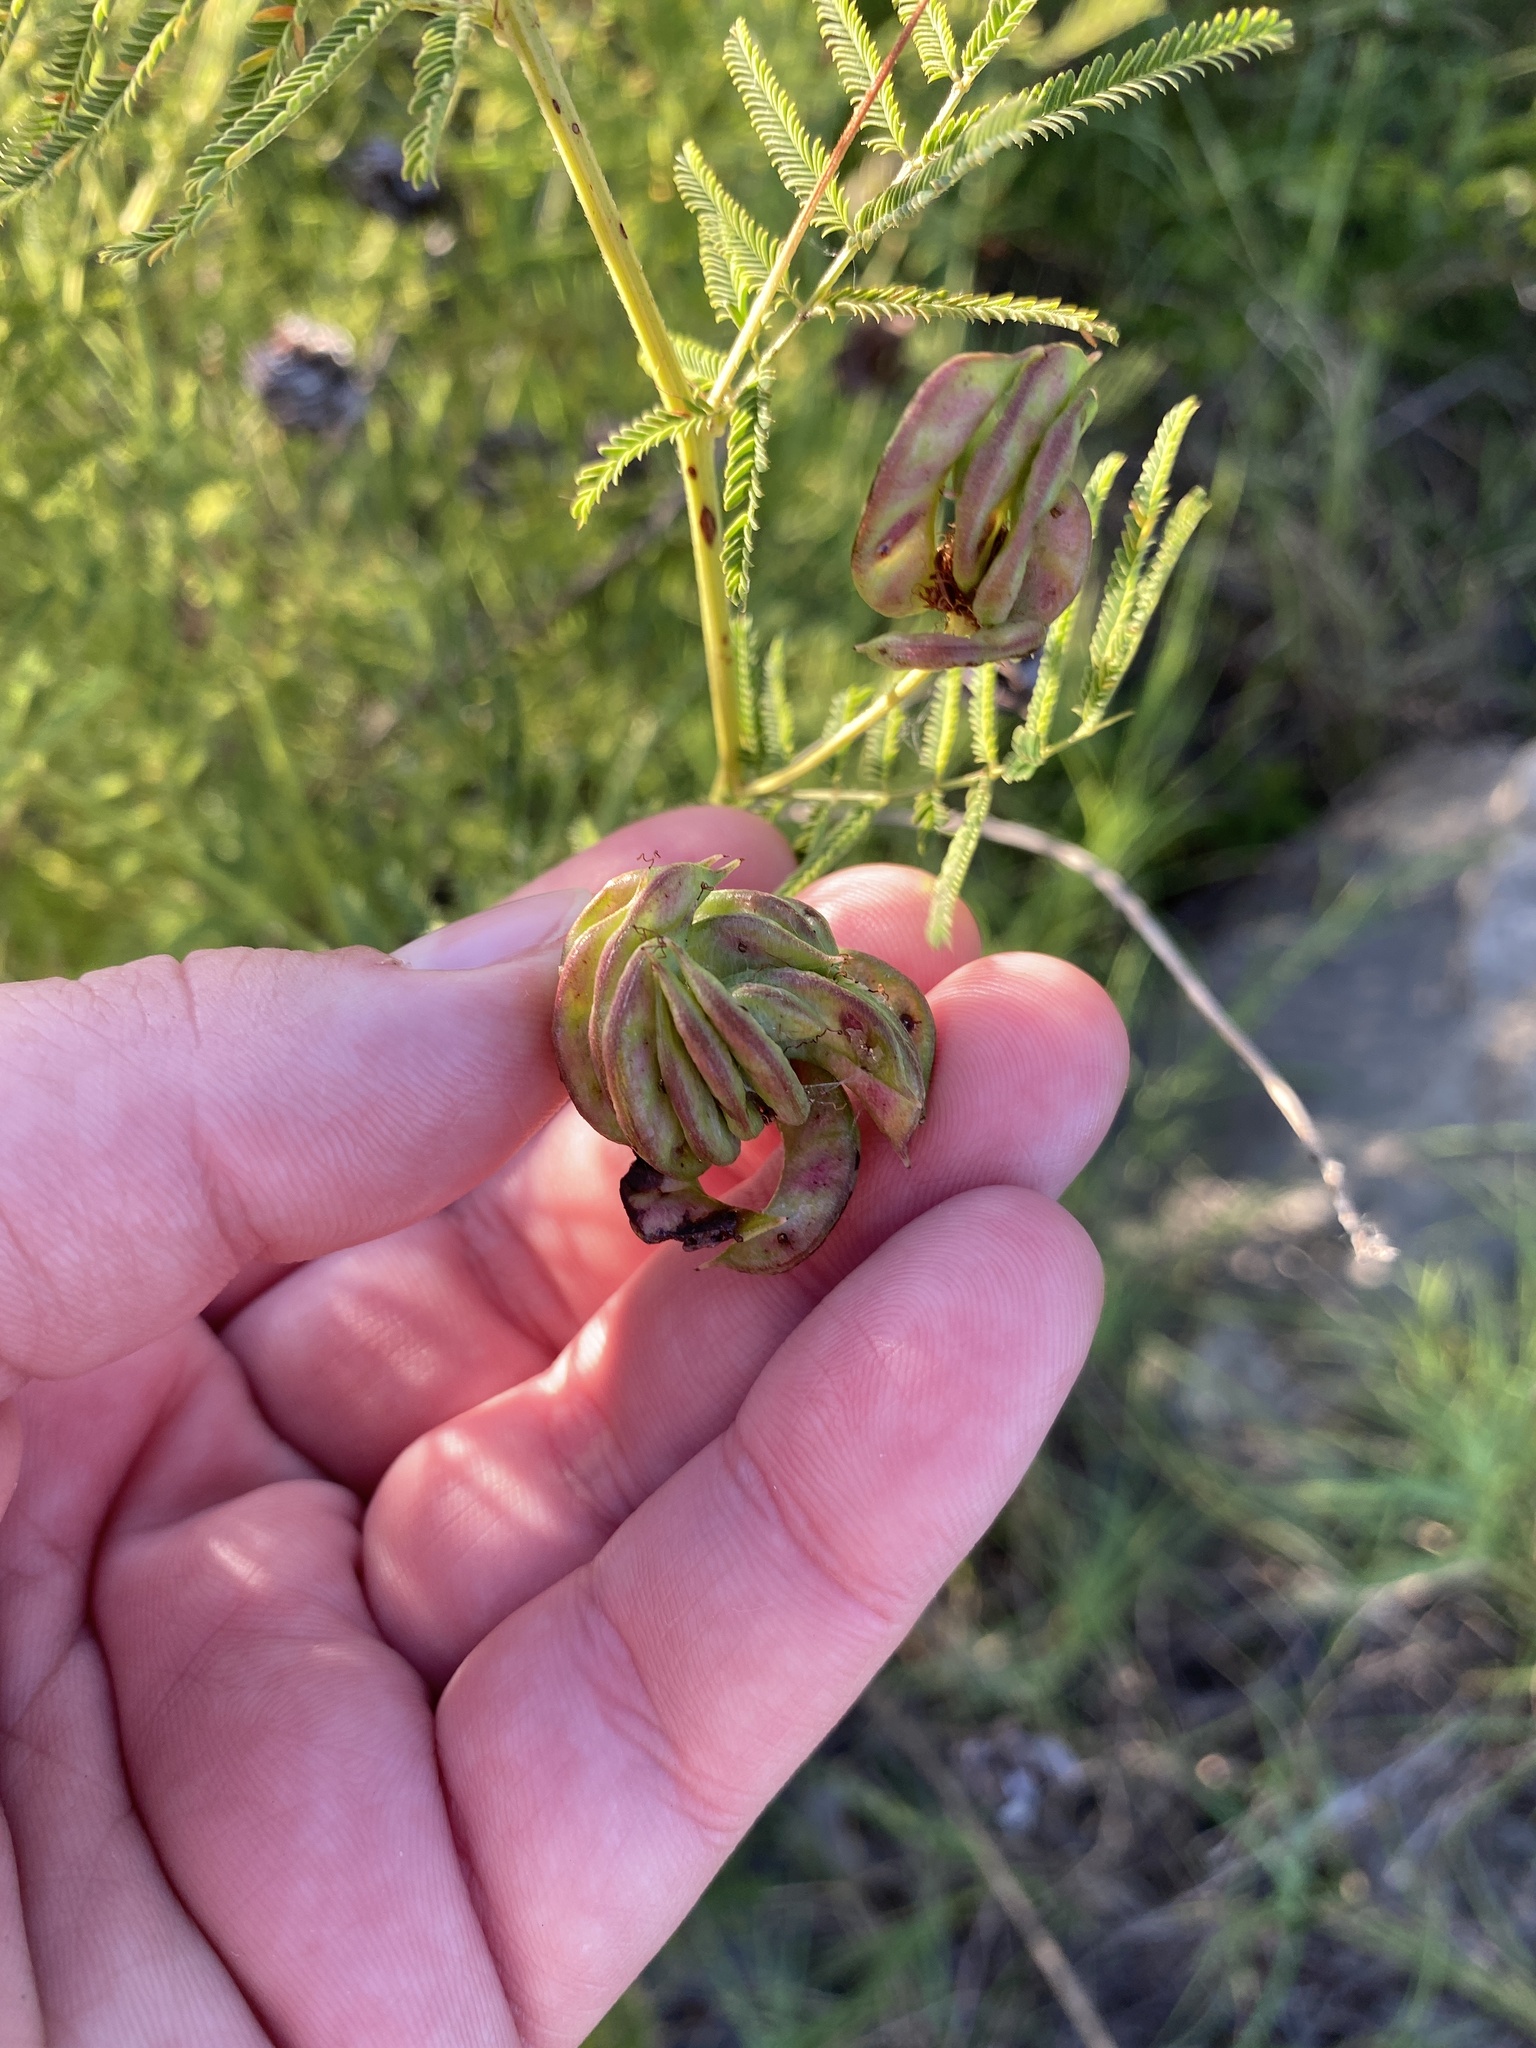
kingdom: Plantae
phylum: Tracheophyta
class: Magnoliopsida
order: Fabales
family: Fabaceae
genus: Desmanthus
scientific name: Desmanthus illinoensis
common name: Illinois bundle-flower
